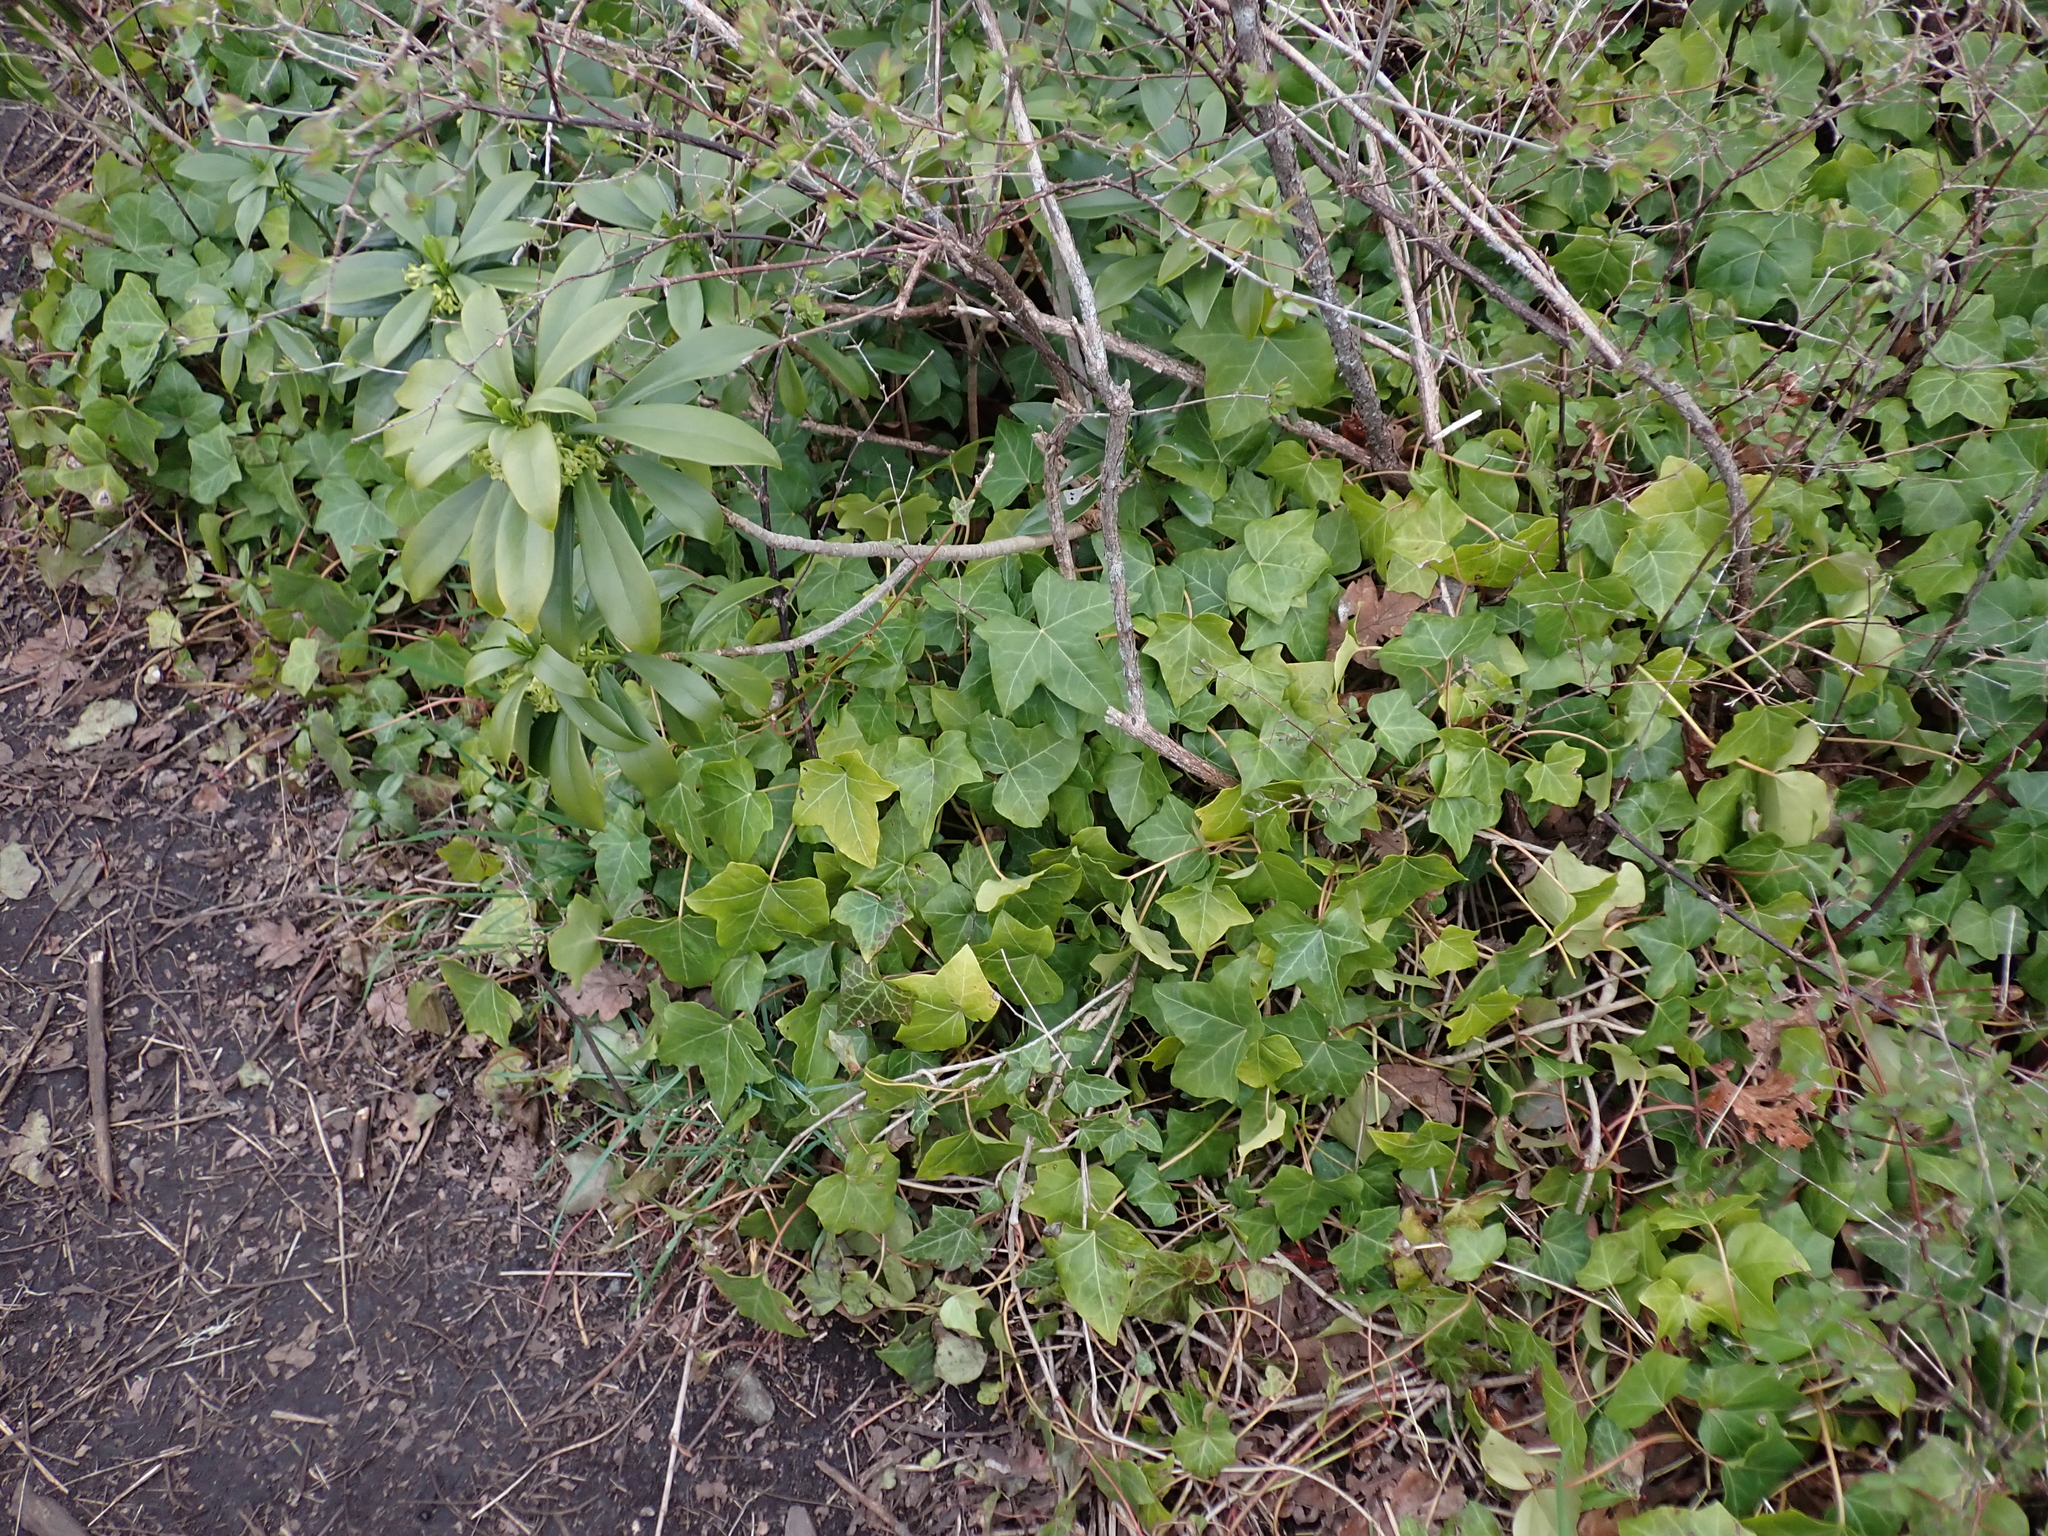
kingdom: Plantae
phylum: Tracheophyta
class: Magnoliopsida
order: Apiales
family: Araliaceae
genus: Hedera
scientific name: Hedera helix
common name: Ivy
